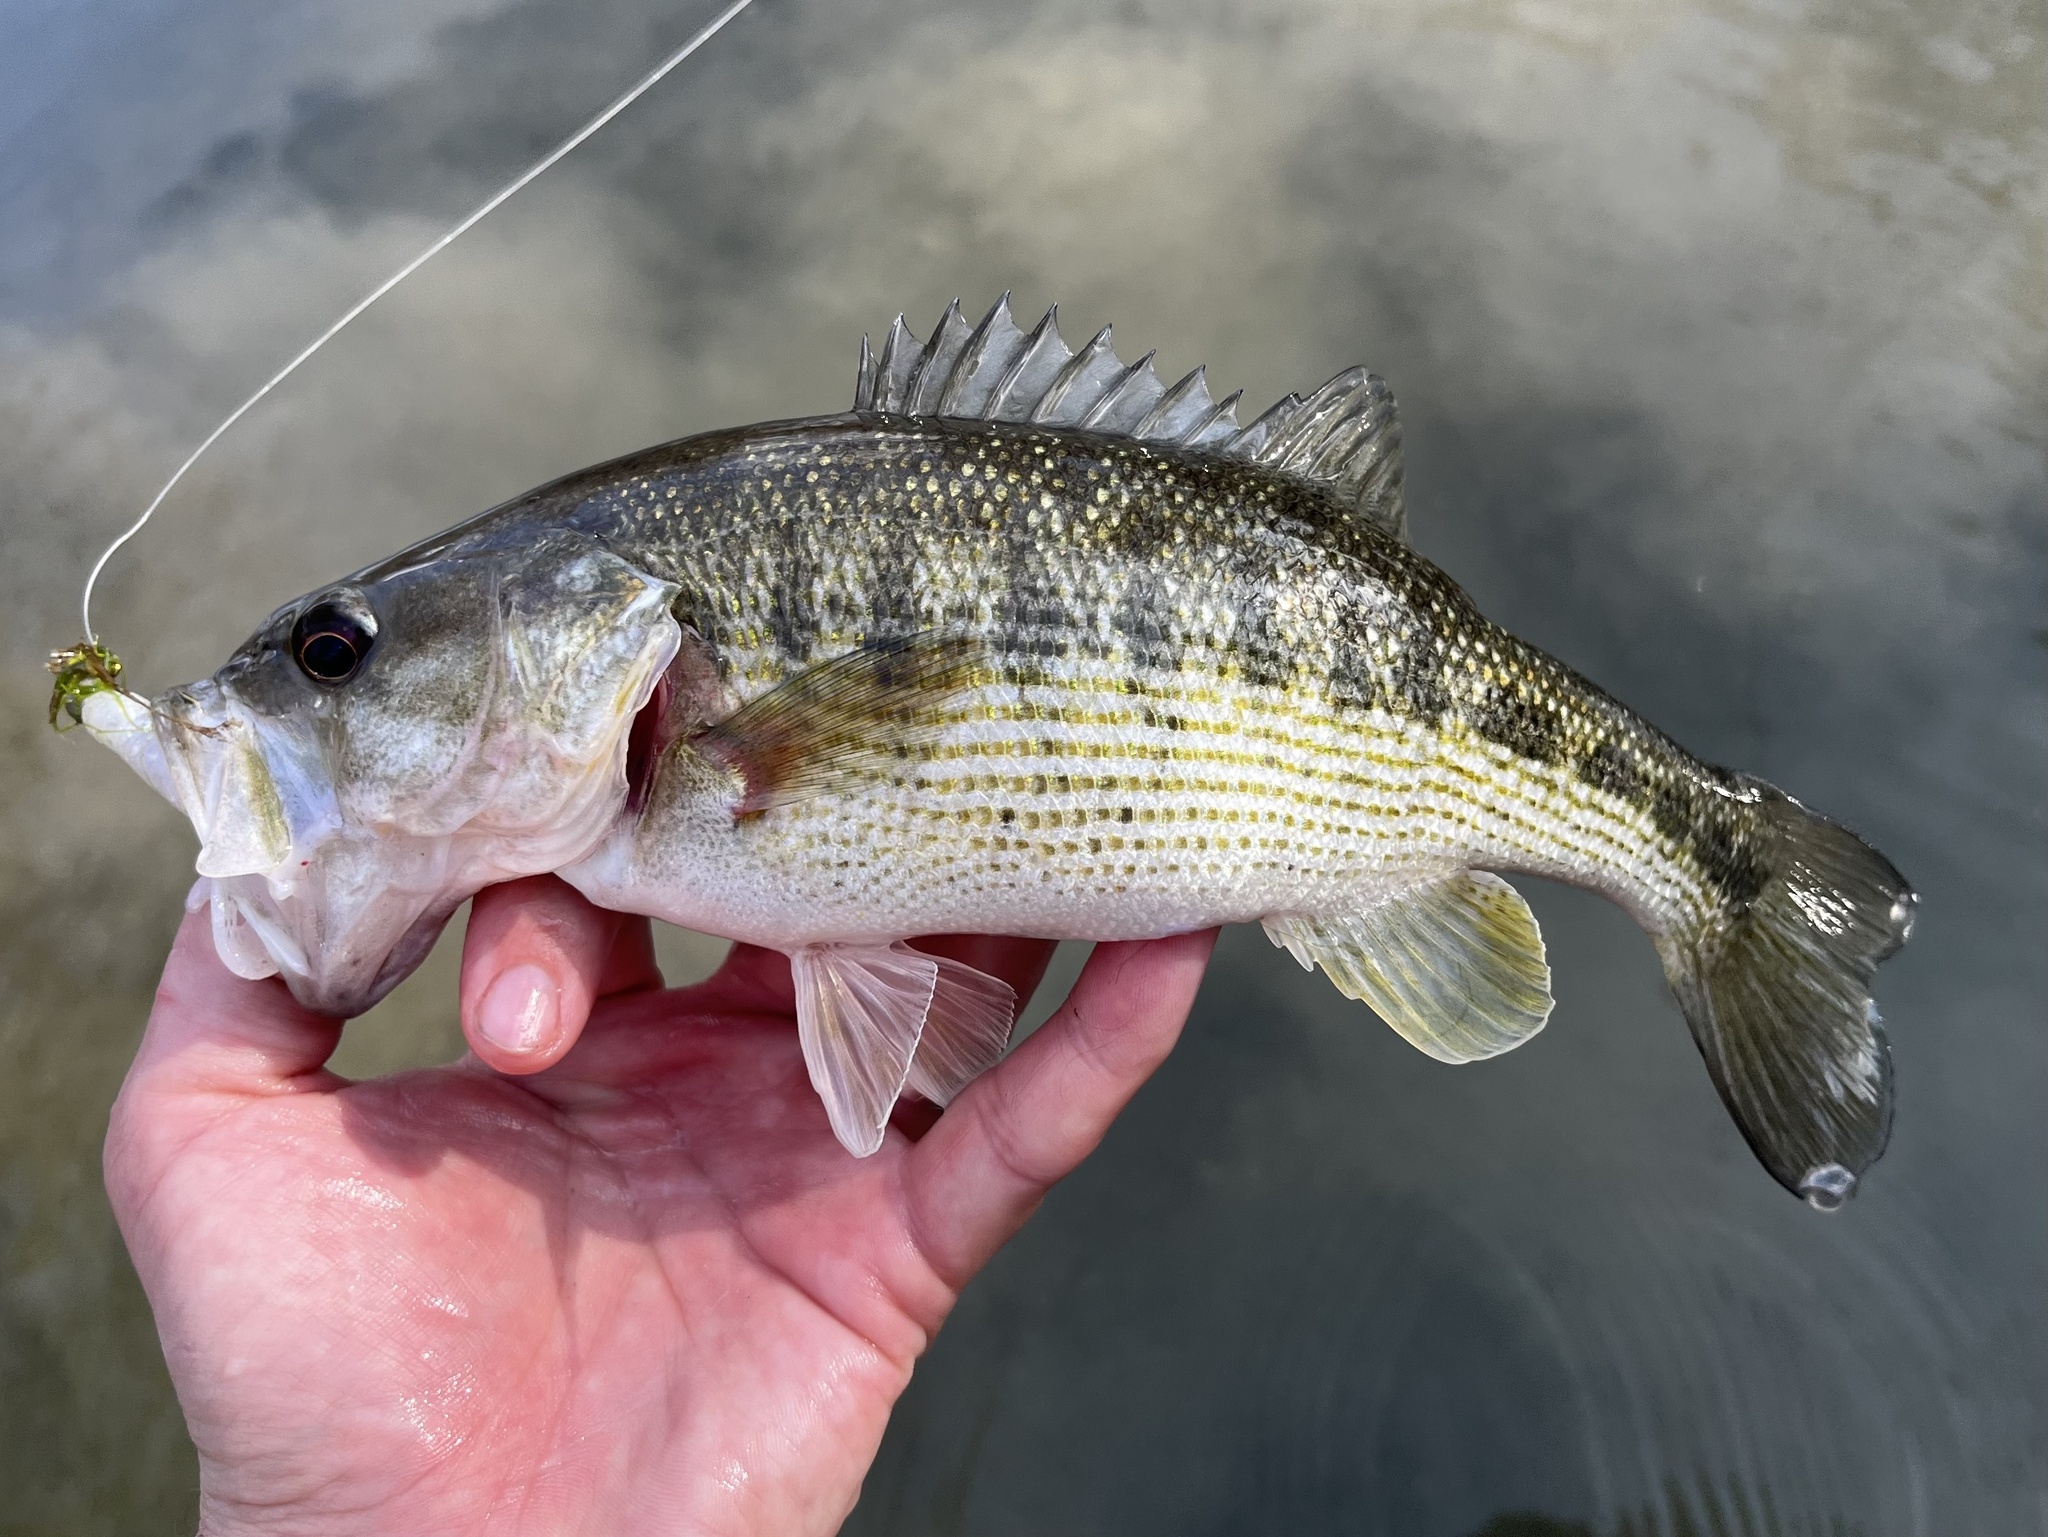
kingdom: Animalia
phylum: Chordata
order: Perciformes
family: Centrarchidae
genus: Micropterus
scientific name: Micropterus treculii
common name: Guadalupe bass
